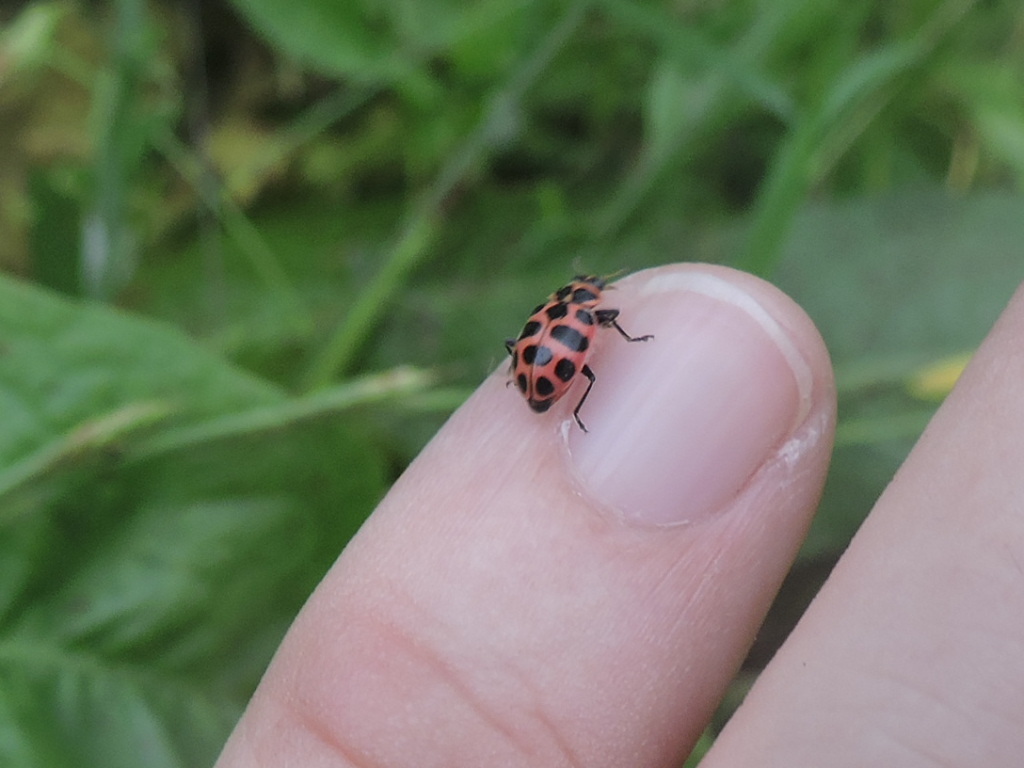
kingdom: Animalia
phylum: Arthropoda
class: Insecta
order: Coleoptera
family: Coccinellidae
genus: Coleomegilla
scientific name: Coleomegilla maculata
